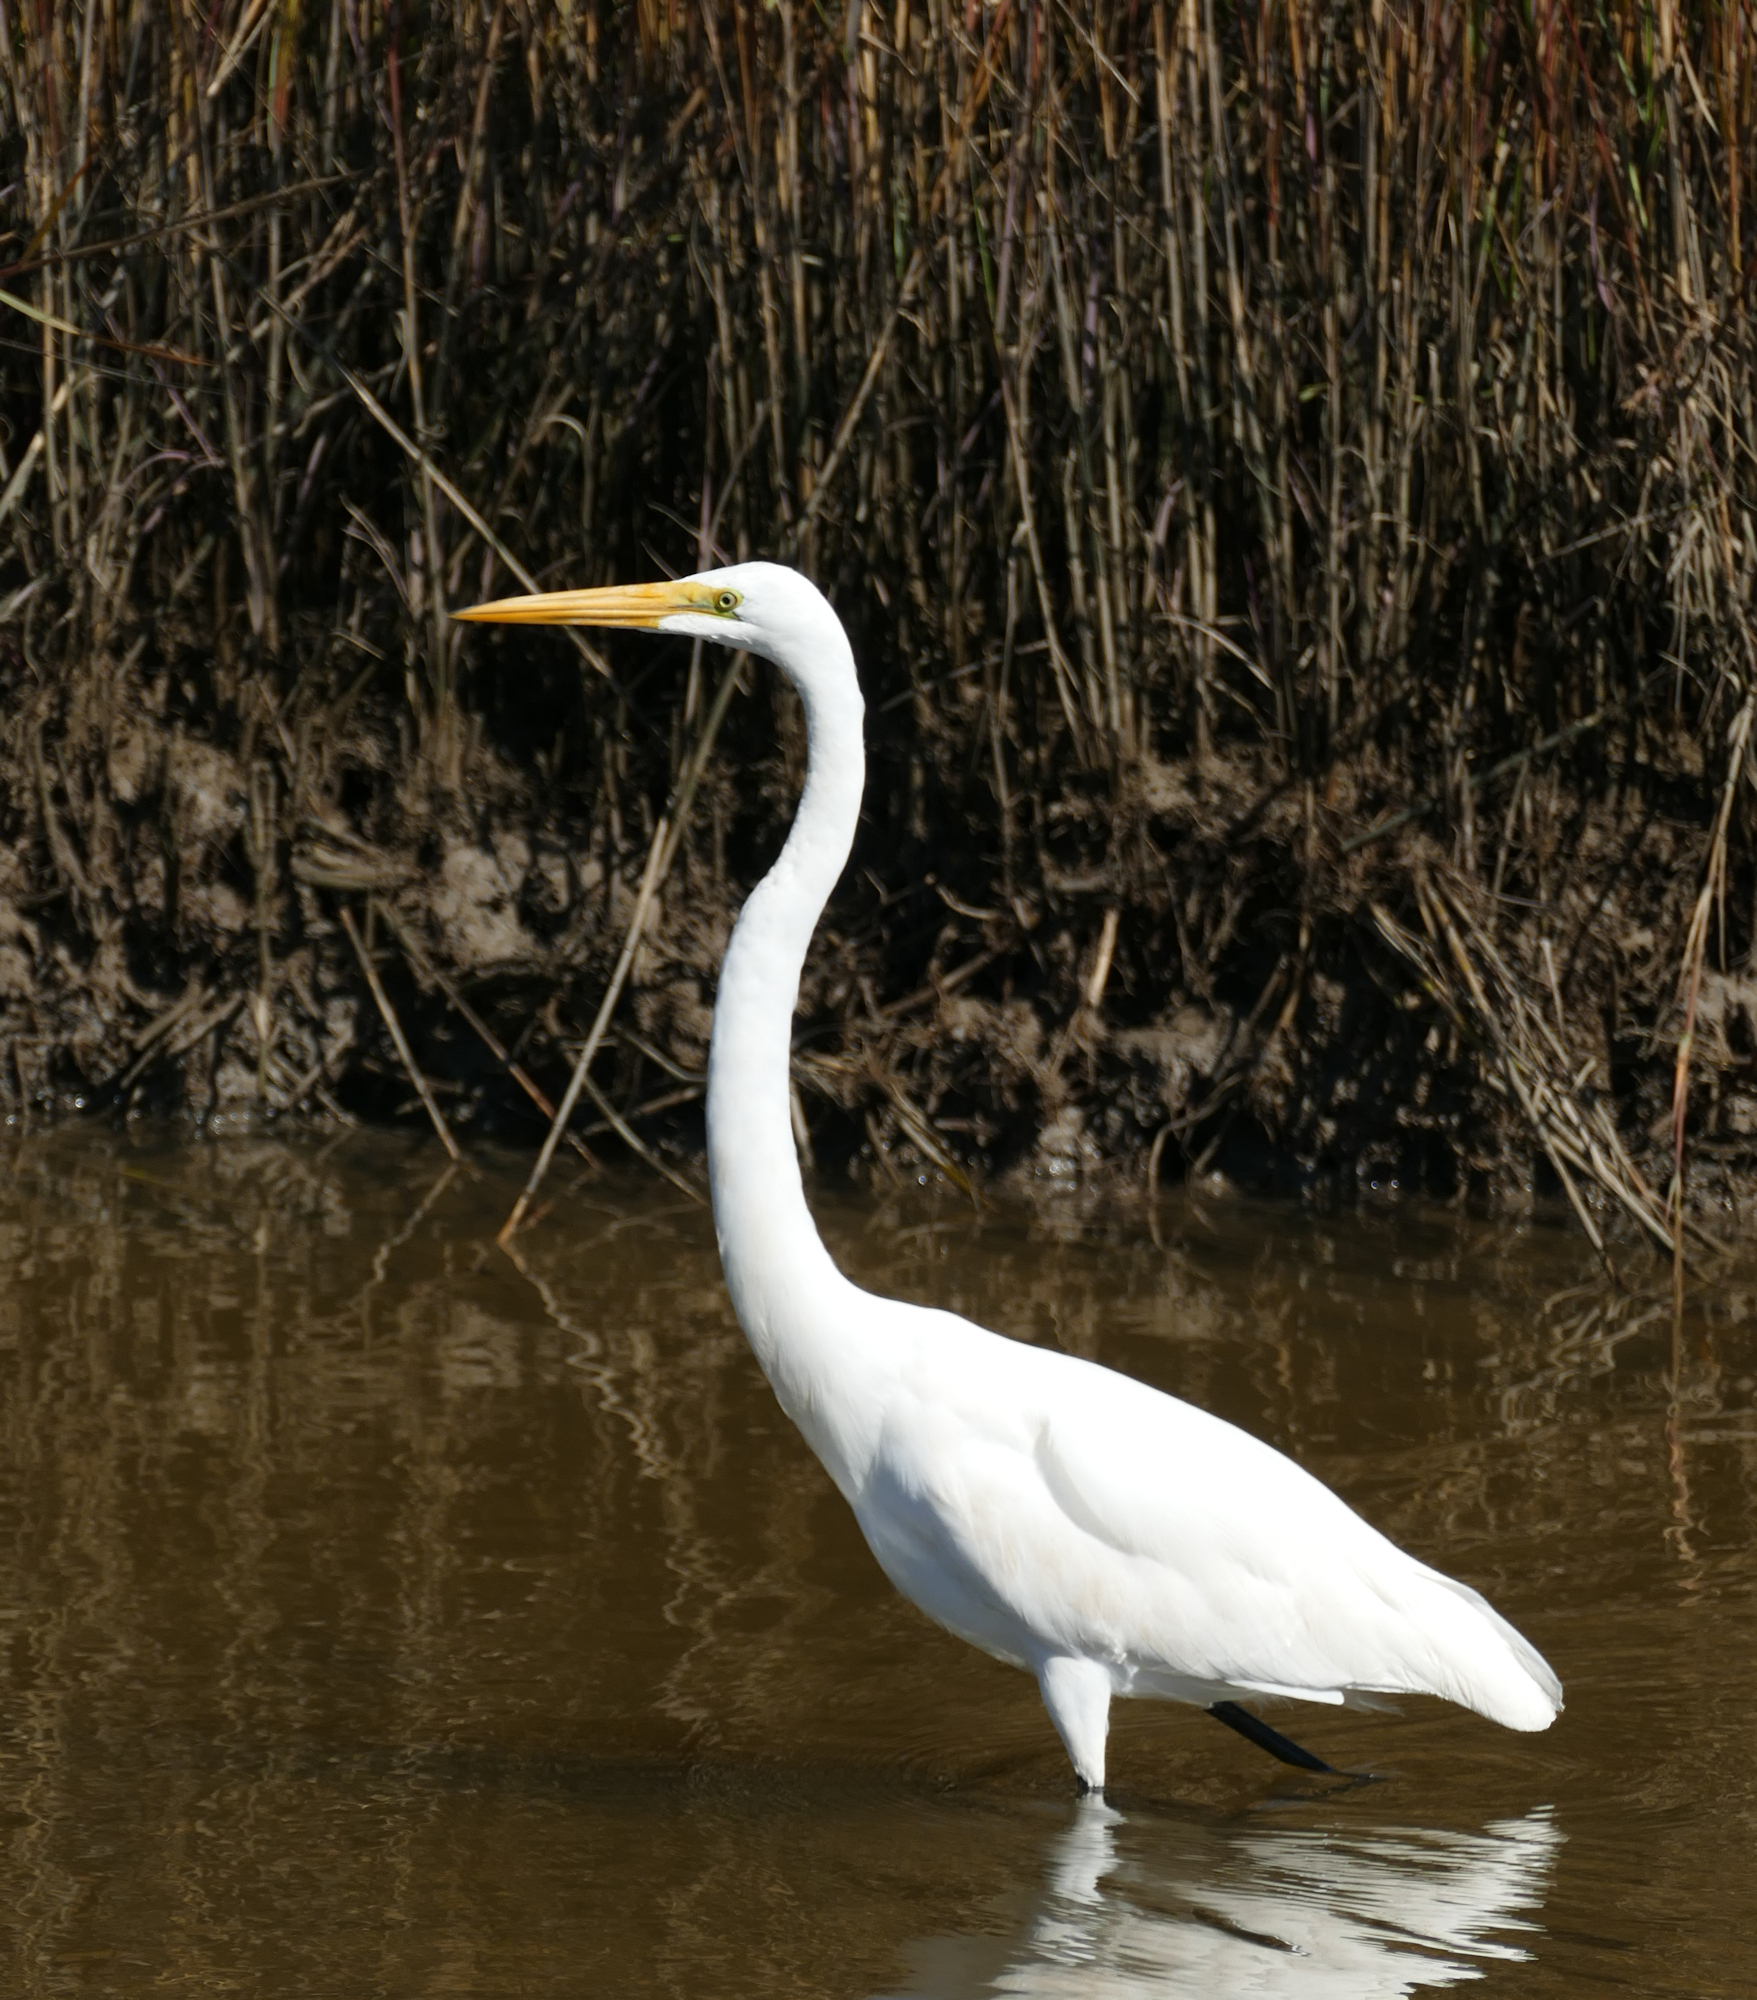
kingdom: Animalia
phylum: Chordata
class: Aves
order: Pelecaniformes
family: Ardeidae
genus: Ardea
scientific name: Ardea alba
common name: Great egret
